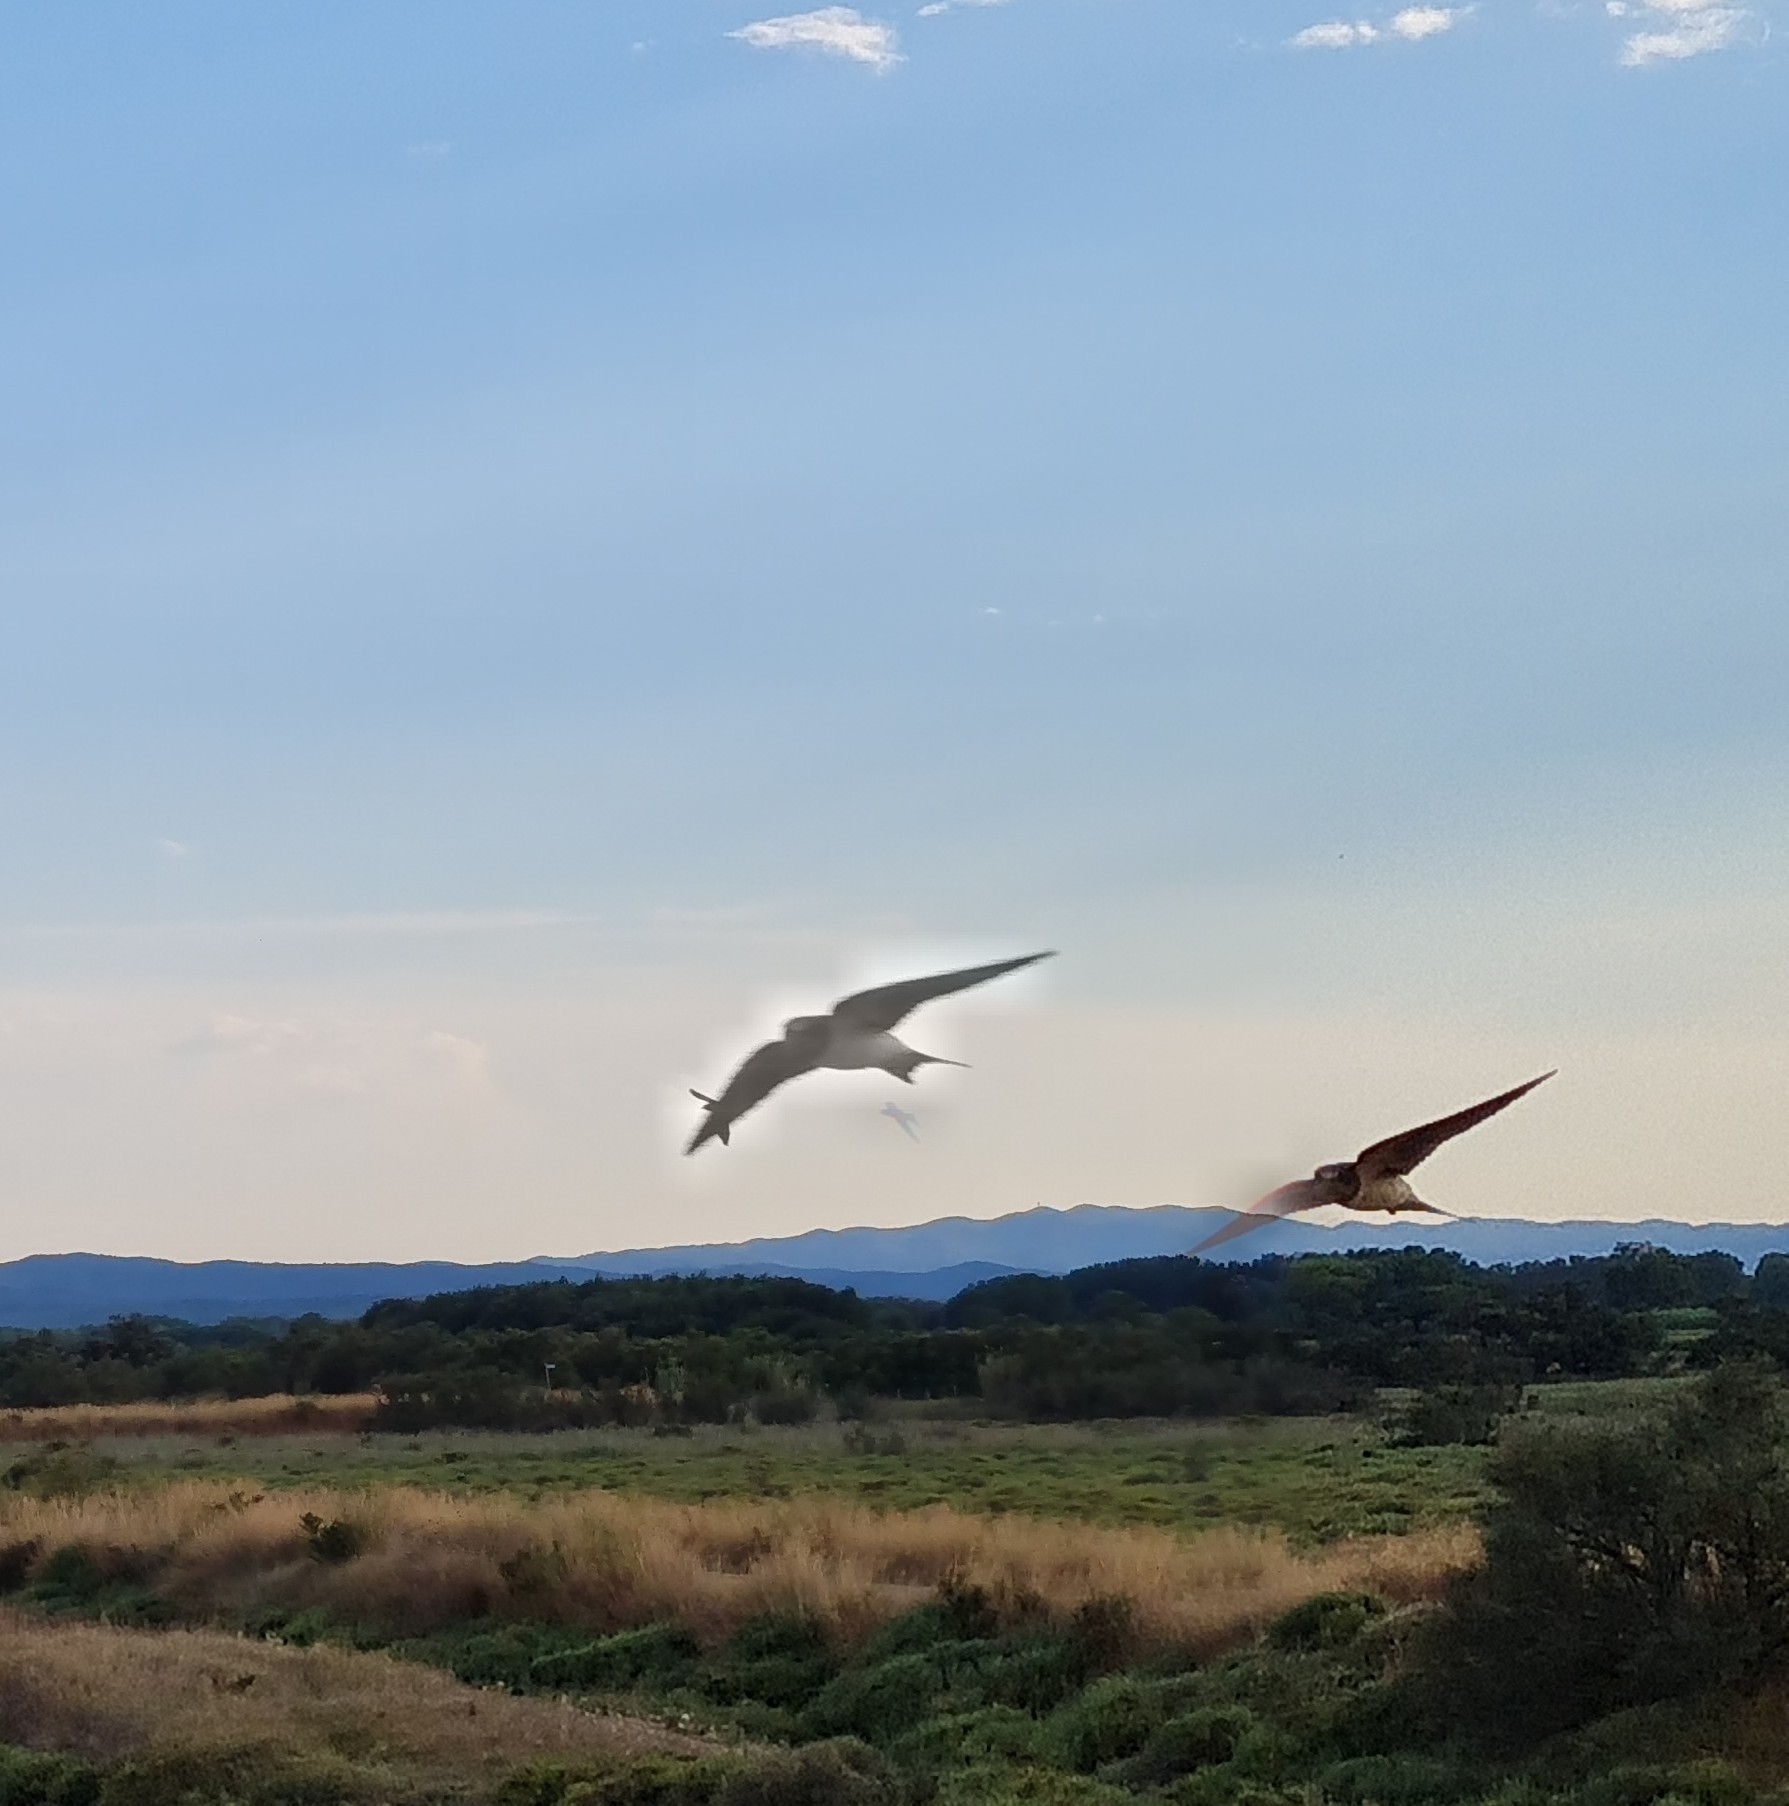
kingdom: Animalia
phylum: Chordata
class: Aves
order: Passeriformes
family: Hirundinidae
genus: Hirundo
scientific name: Hirundo rustica
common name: Barn swallow
